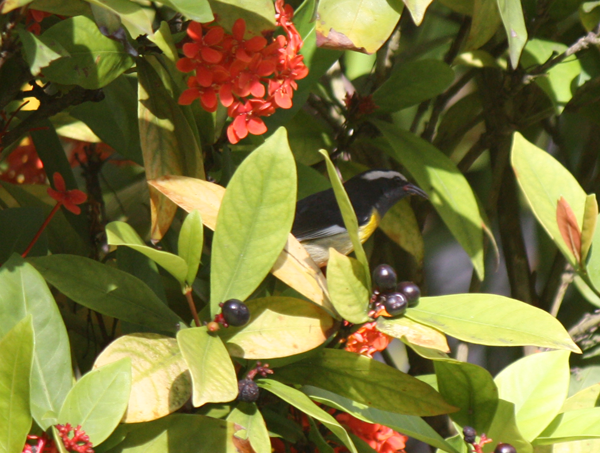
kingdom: Animalia
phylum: Chordata
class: Aves
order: Passeriformes
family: Thraupidae
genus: Coereba
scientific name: Coereba flaveola
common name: Bananaquit
